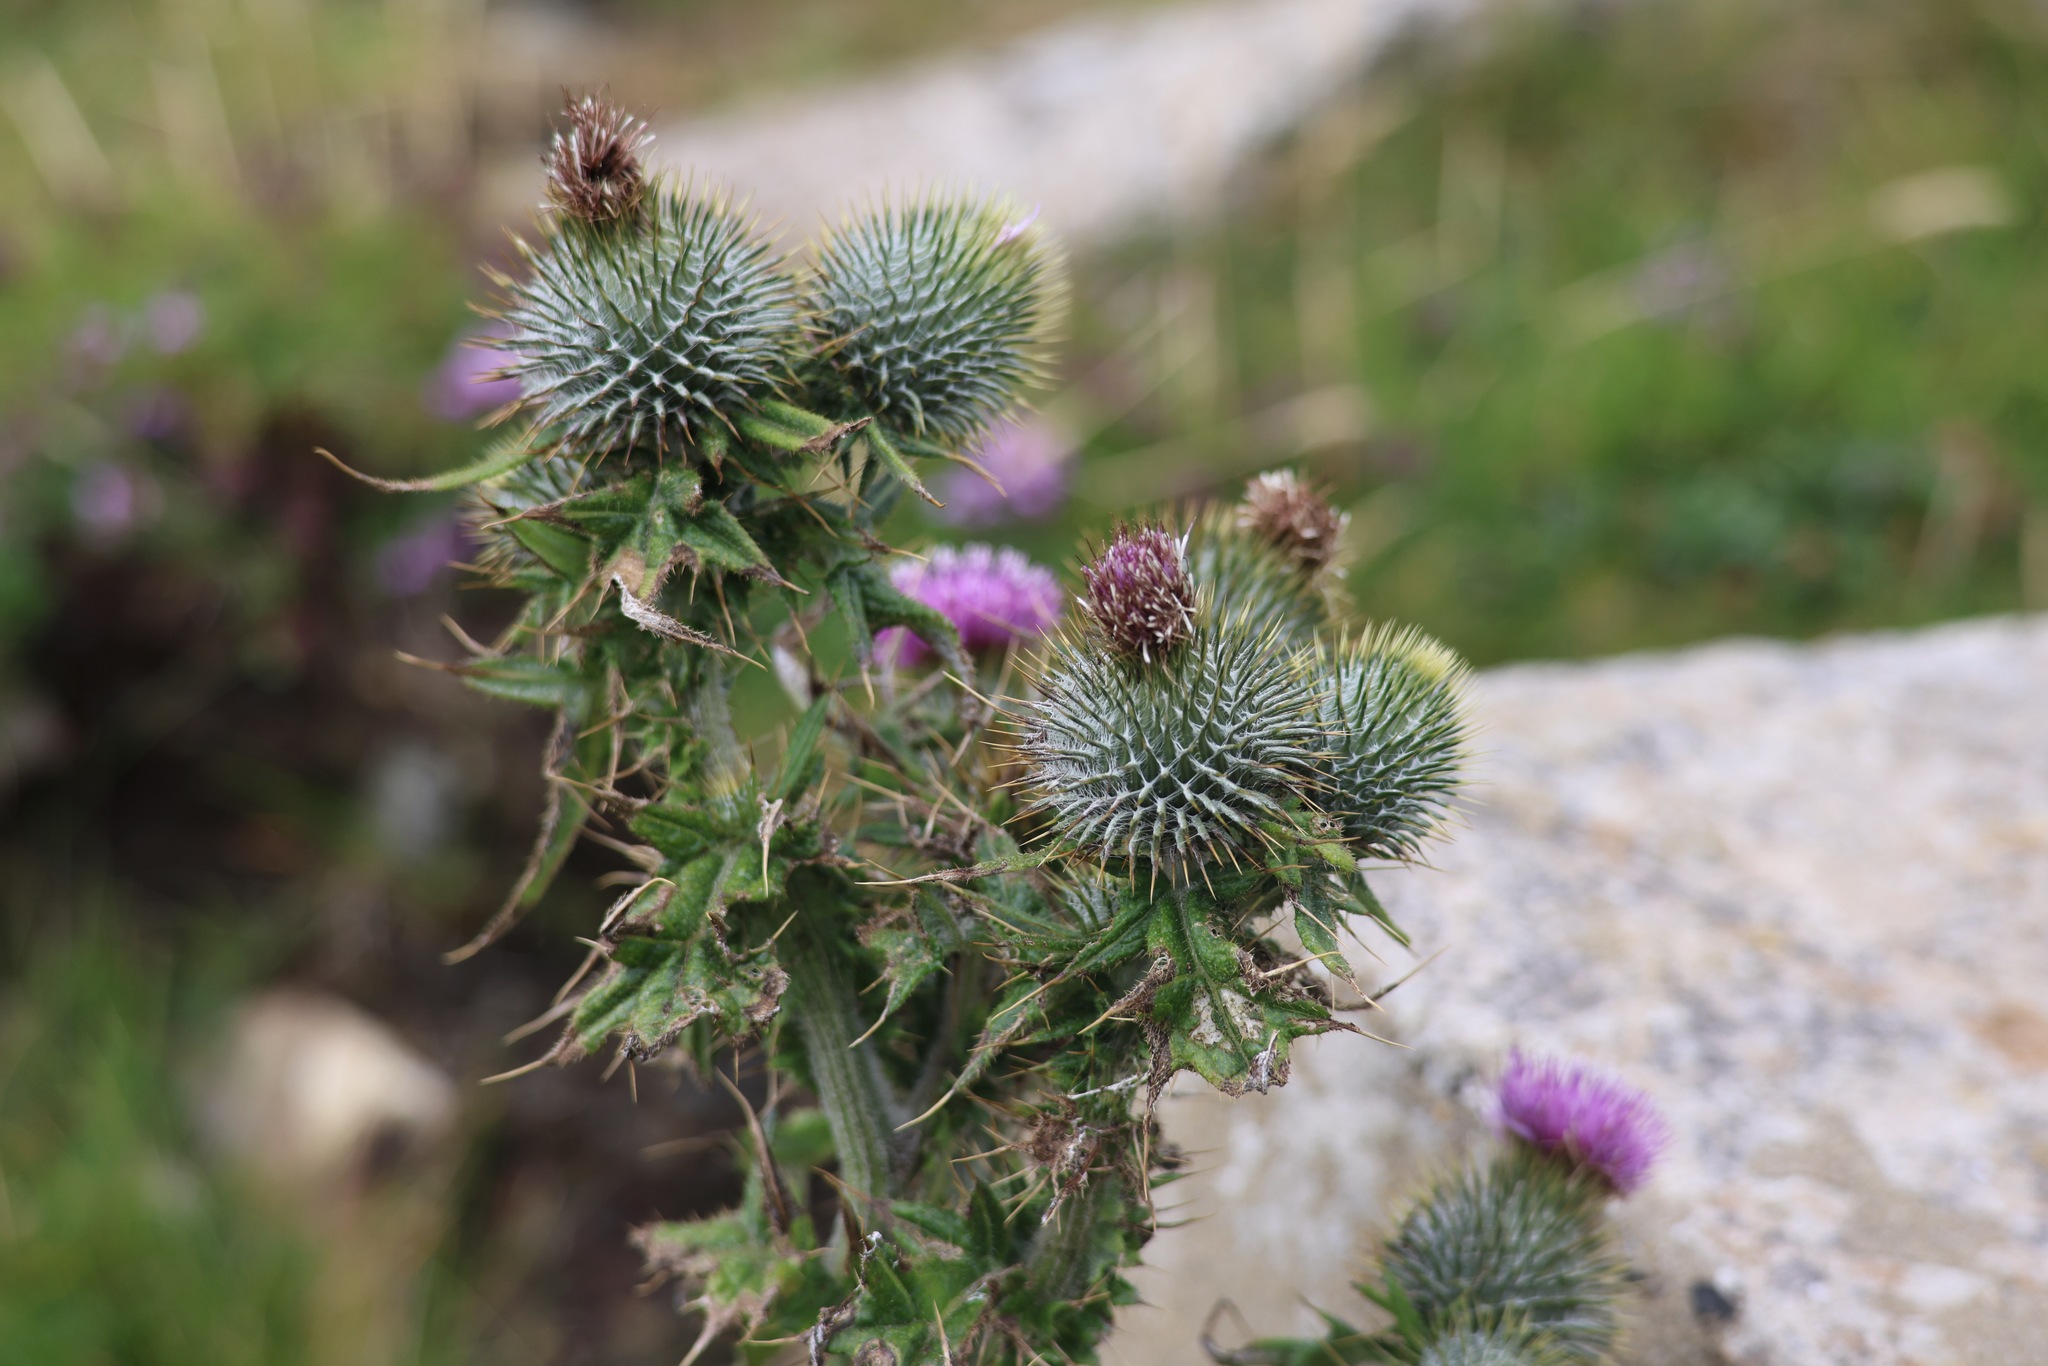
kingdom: Plantae
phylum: Tracheophyta
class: Magnoliopsida
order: Asterales
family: Asteraceae
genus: Cirsium
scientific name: Cirsium vulgare
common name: Bull thistle
